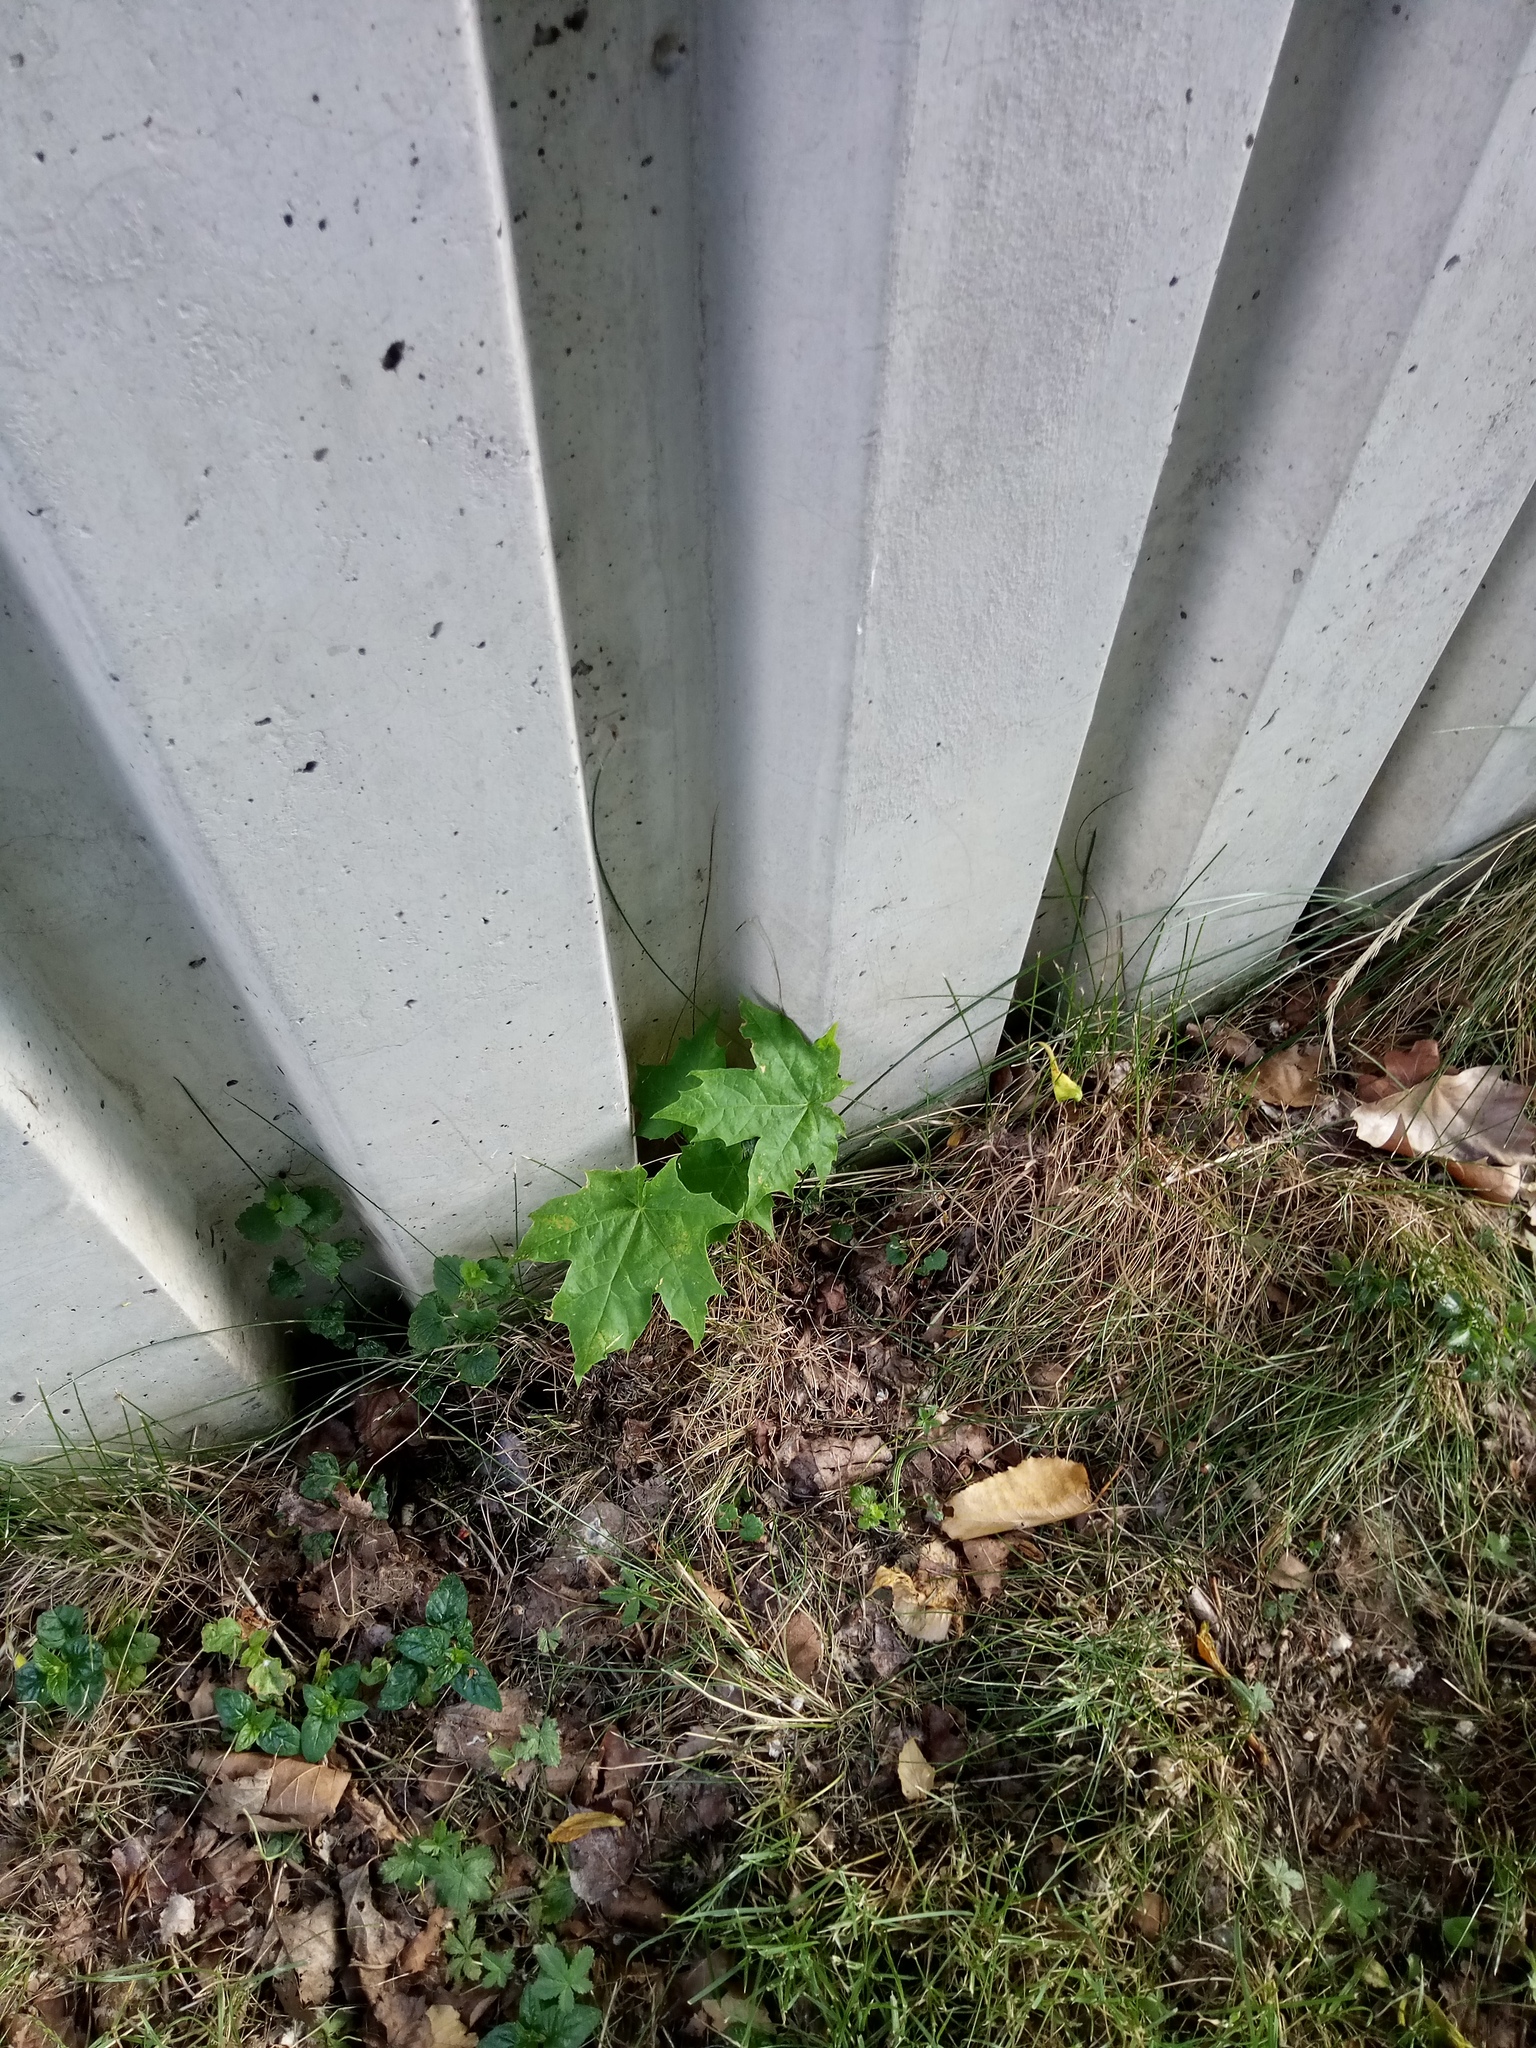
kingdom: Plantae
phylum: Tracheophyta
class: Magnoliopsida
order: Sapindales
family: Sapindaceae
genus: Acer
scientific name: Acer platanoides
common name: Norway maple
